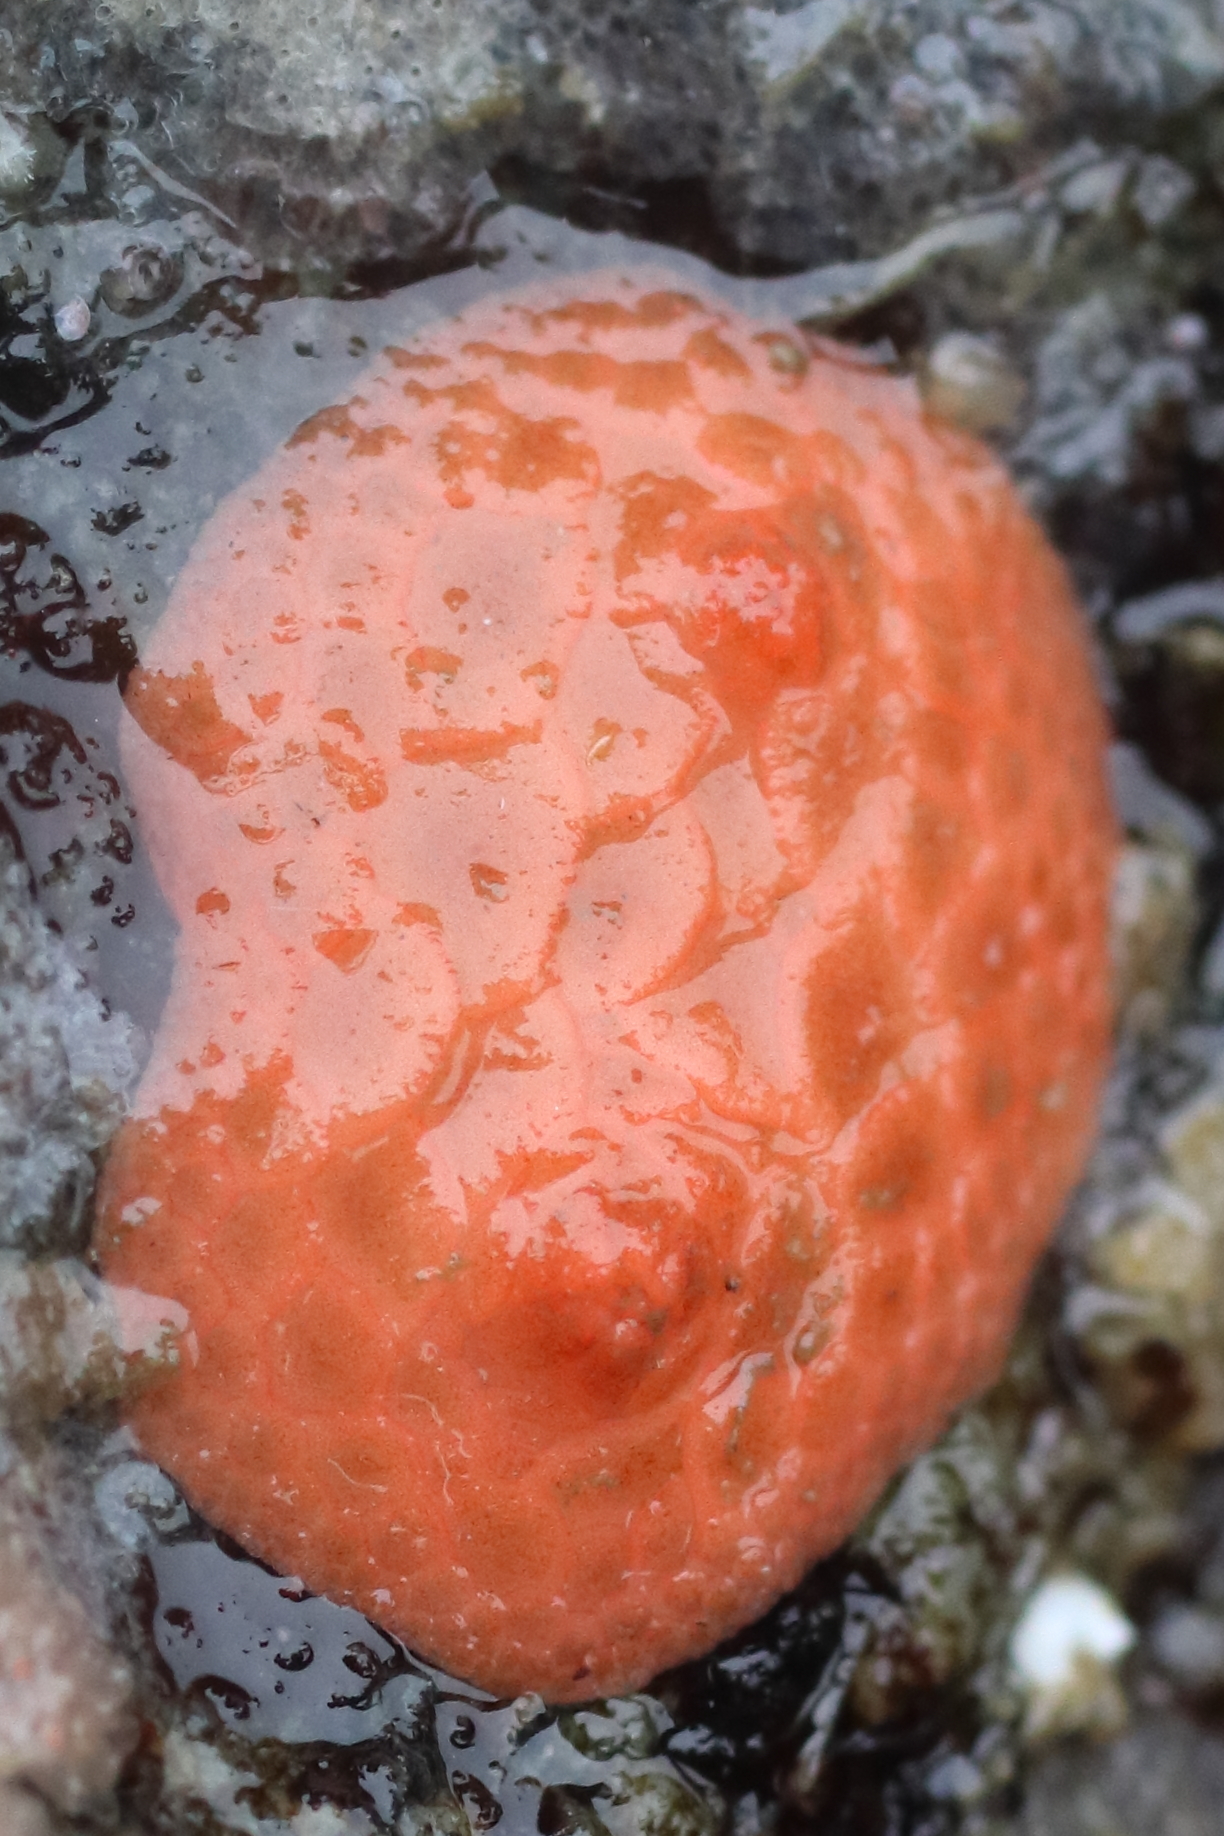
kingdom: Animalia
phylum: Echinodermata
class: Holothuroidea
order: Dendrochirotida
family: Psolidae
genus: Psolus
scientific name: Psolus chitonoides
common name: Creeping pedal sea cucumber
